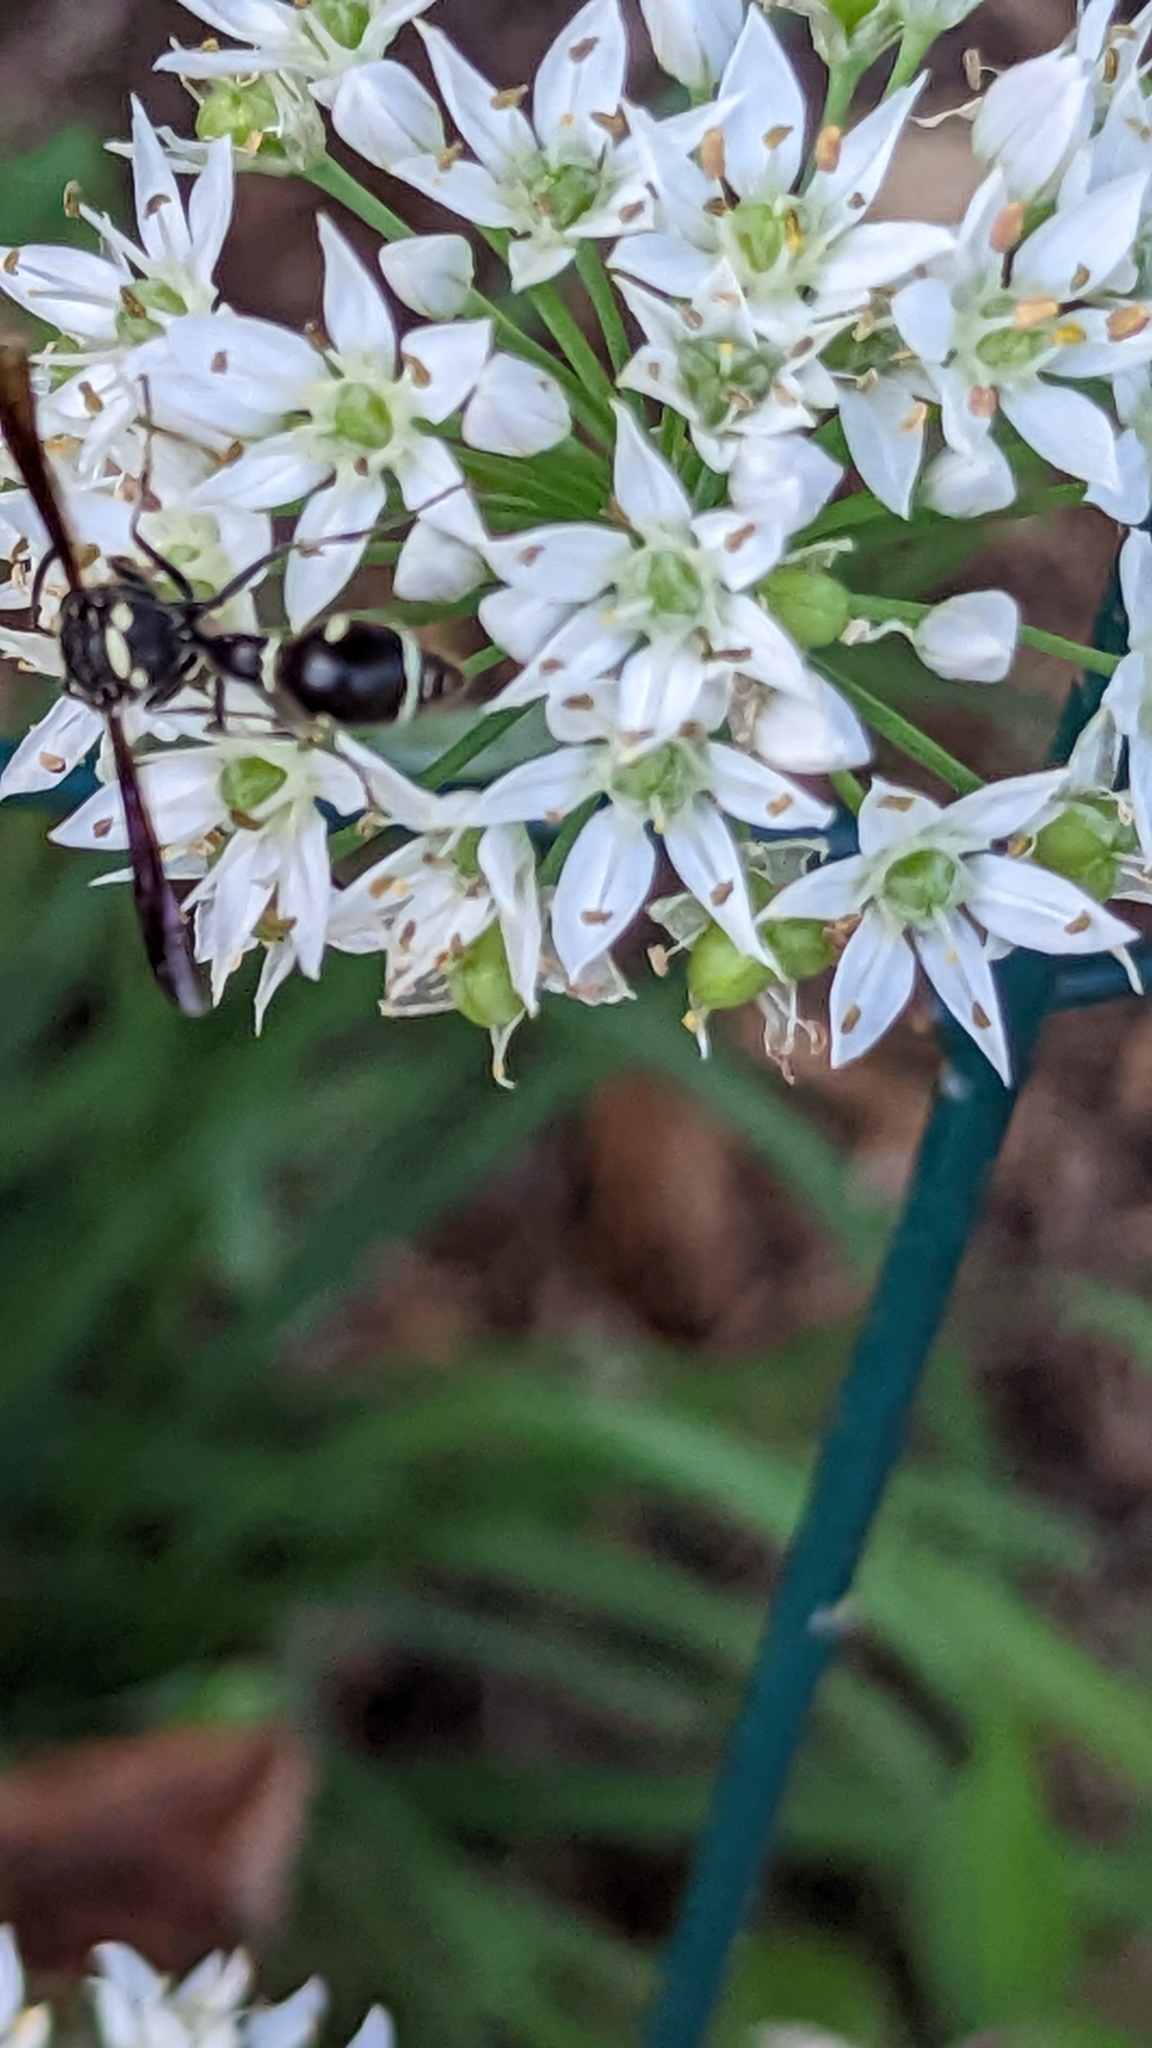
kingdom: Animalia
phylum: Arthropoda
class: Insecta
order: Hymenoptera
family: Vespidae
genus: Eumenes
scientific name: Eumenes fraternus
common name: Fraternal potter wasp
